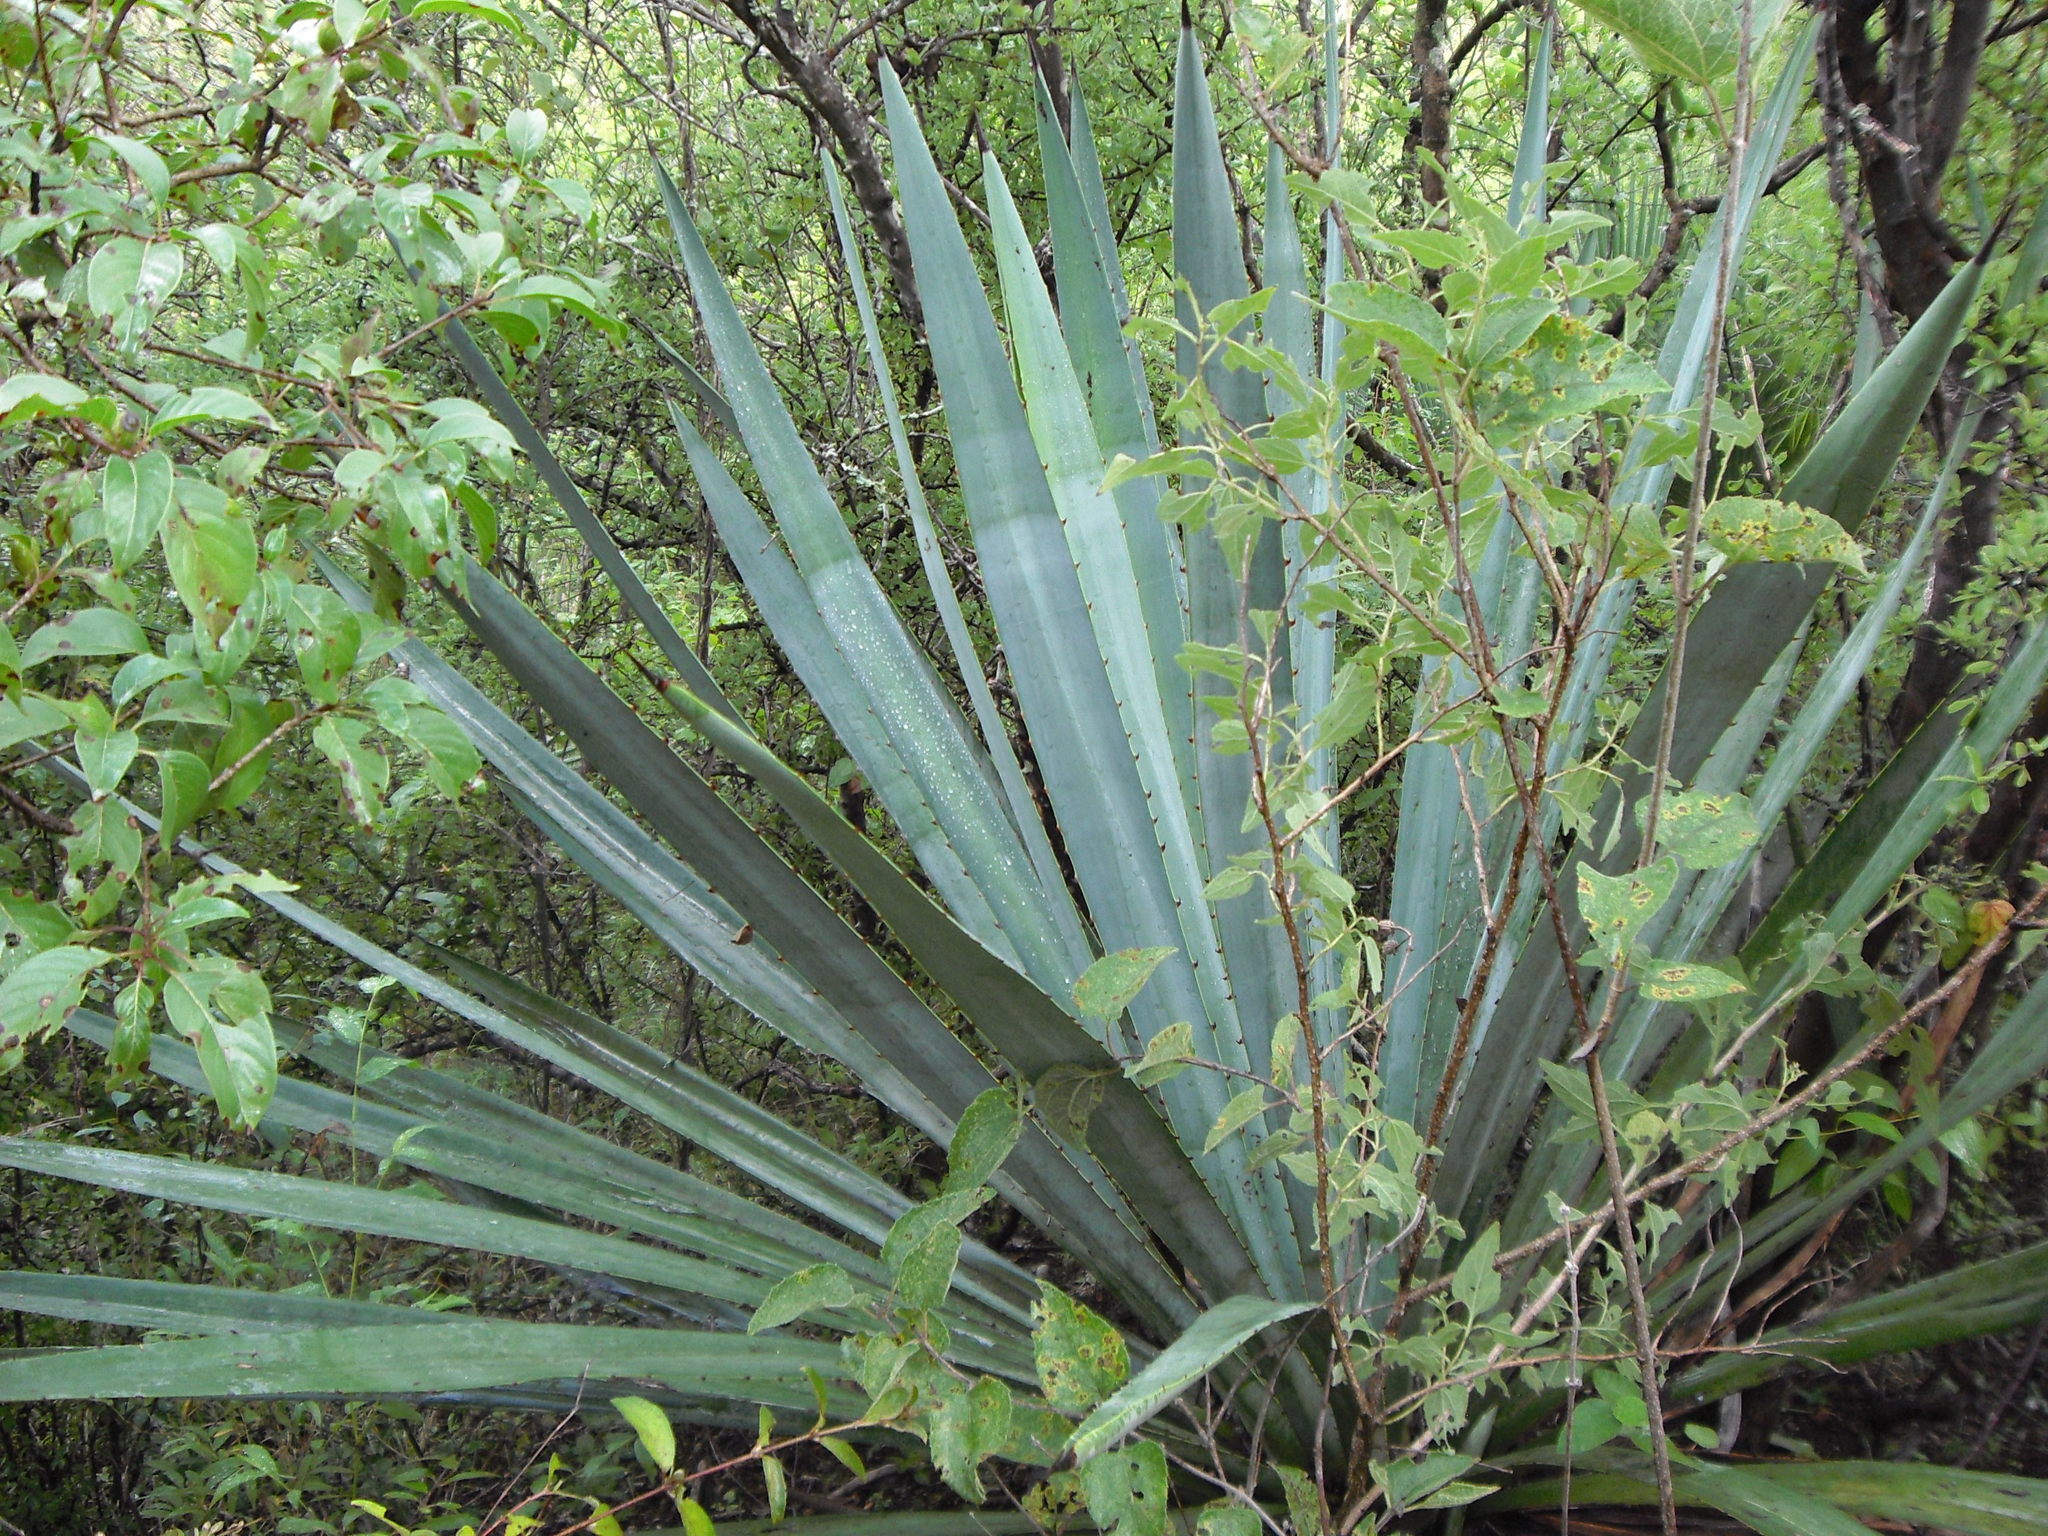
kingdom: Plantae
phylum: Tracheophyta
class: Liliopsida
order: Asparagales
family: Asparagaceae
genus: Agave
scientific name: Agave angustifolia
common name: Mescal agave
